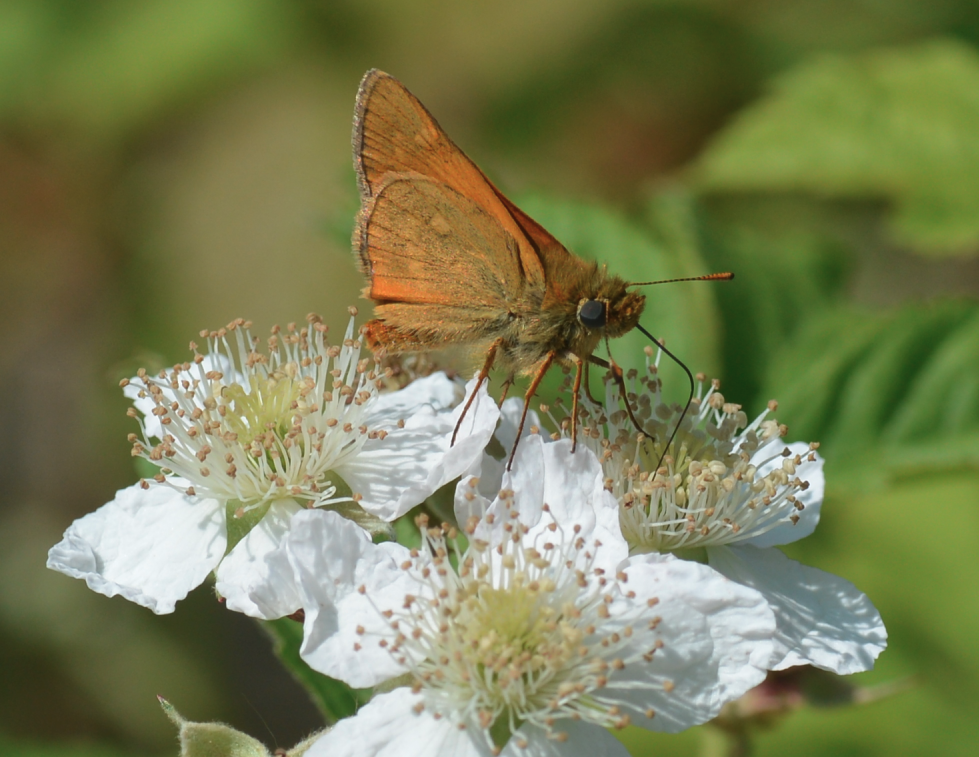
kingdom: Animalia
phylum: Arthropoda
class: Insecta
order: Lepidoptera
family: Hesperiidae
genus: Ochlodes
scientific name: Ochlodes venata
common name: Large skipper
